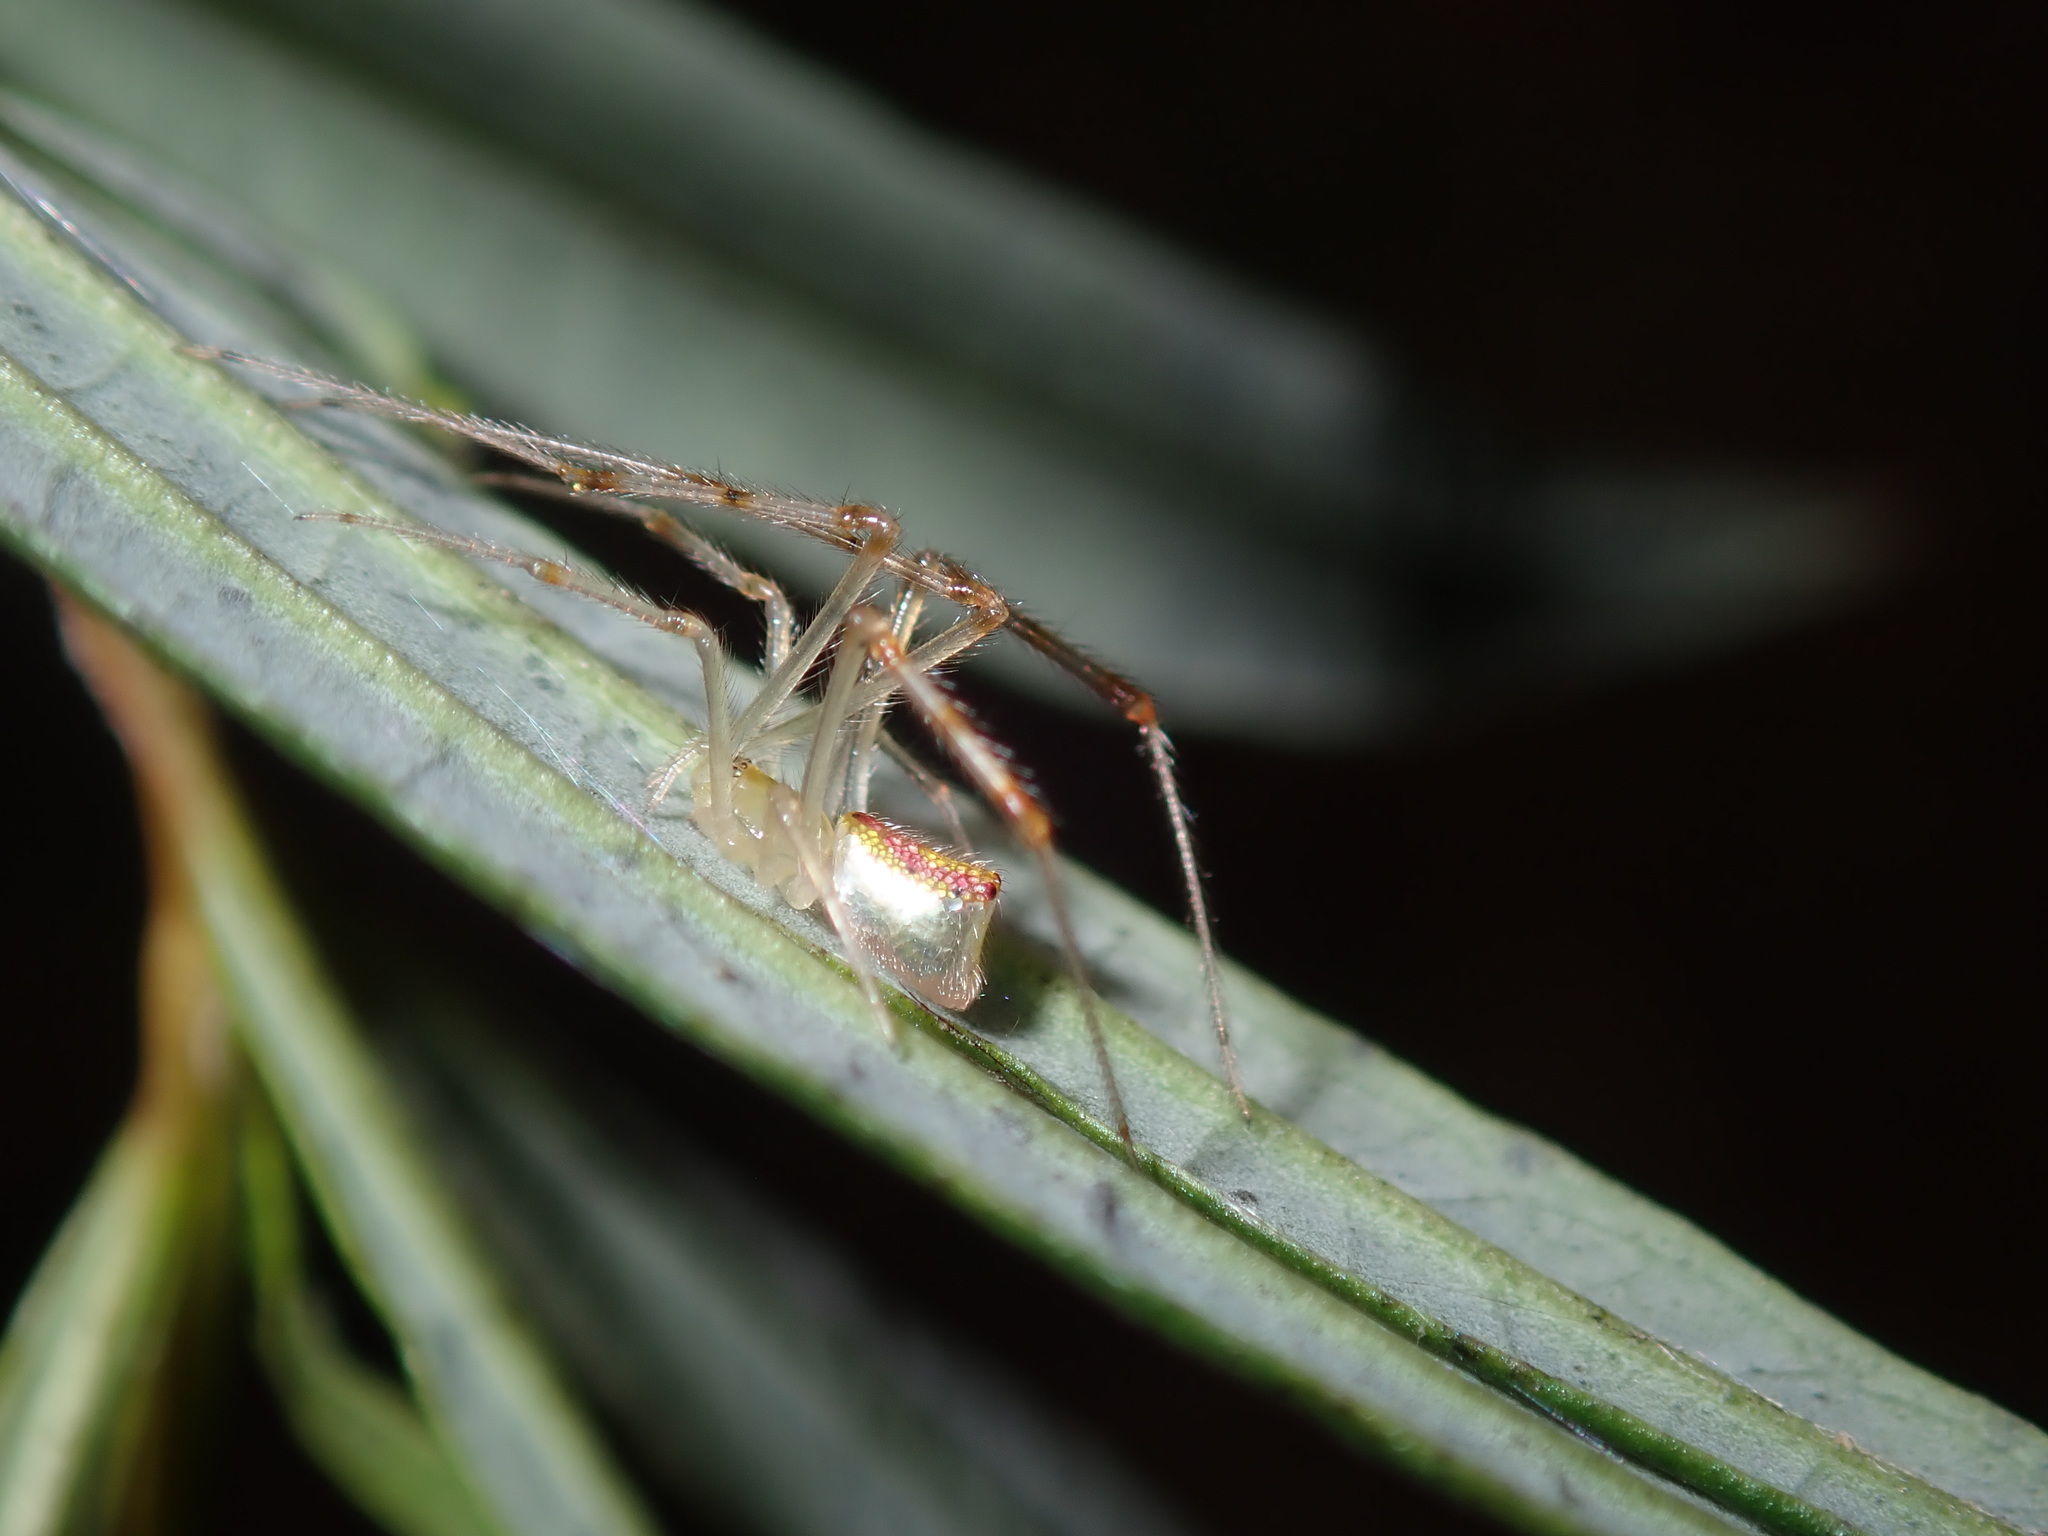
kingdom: Animalia
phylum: Arthropoda
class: Arachnida
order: Araneae
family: Theridiidae
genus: Thwaitesia
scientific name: Thwaitesia nigronodosa
